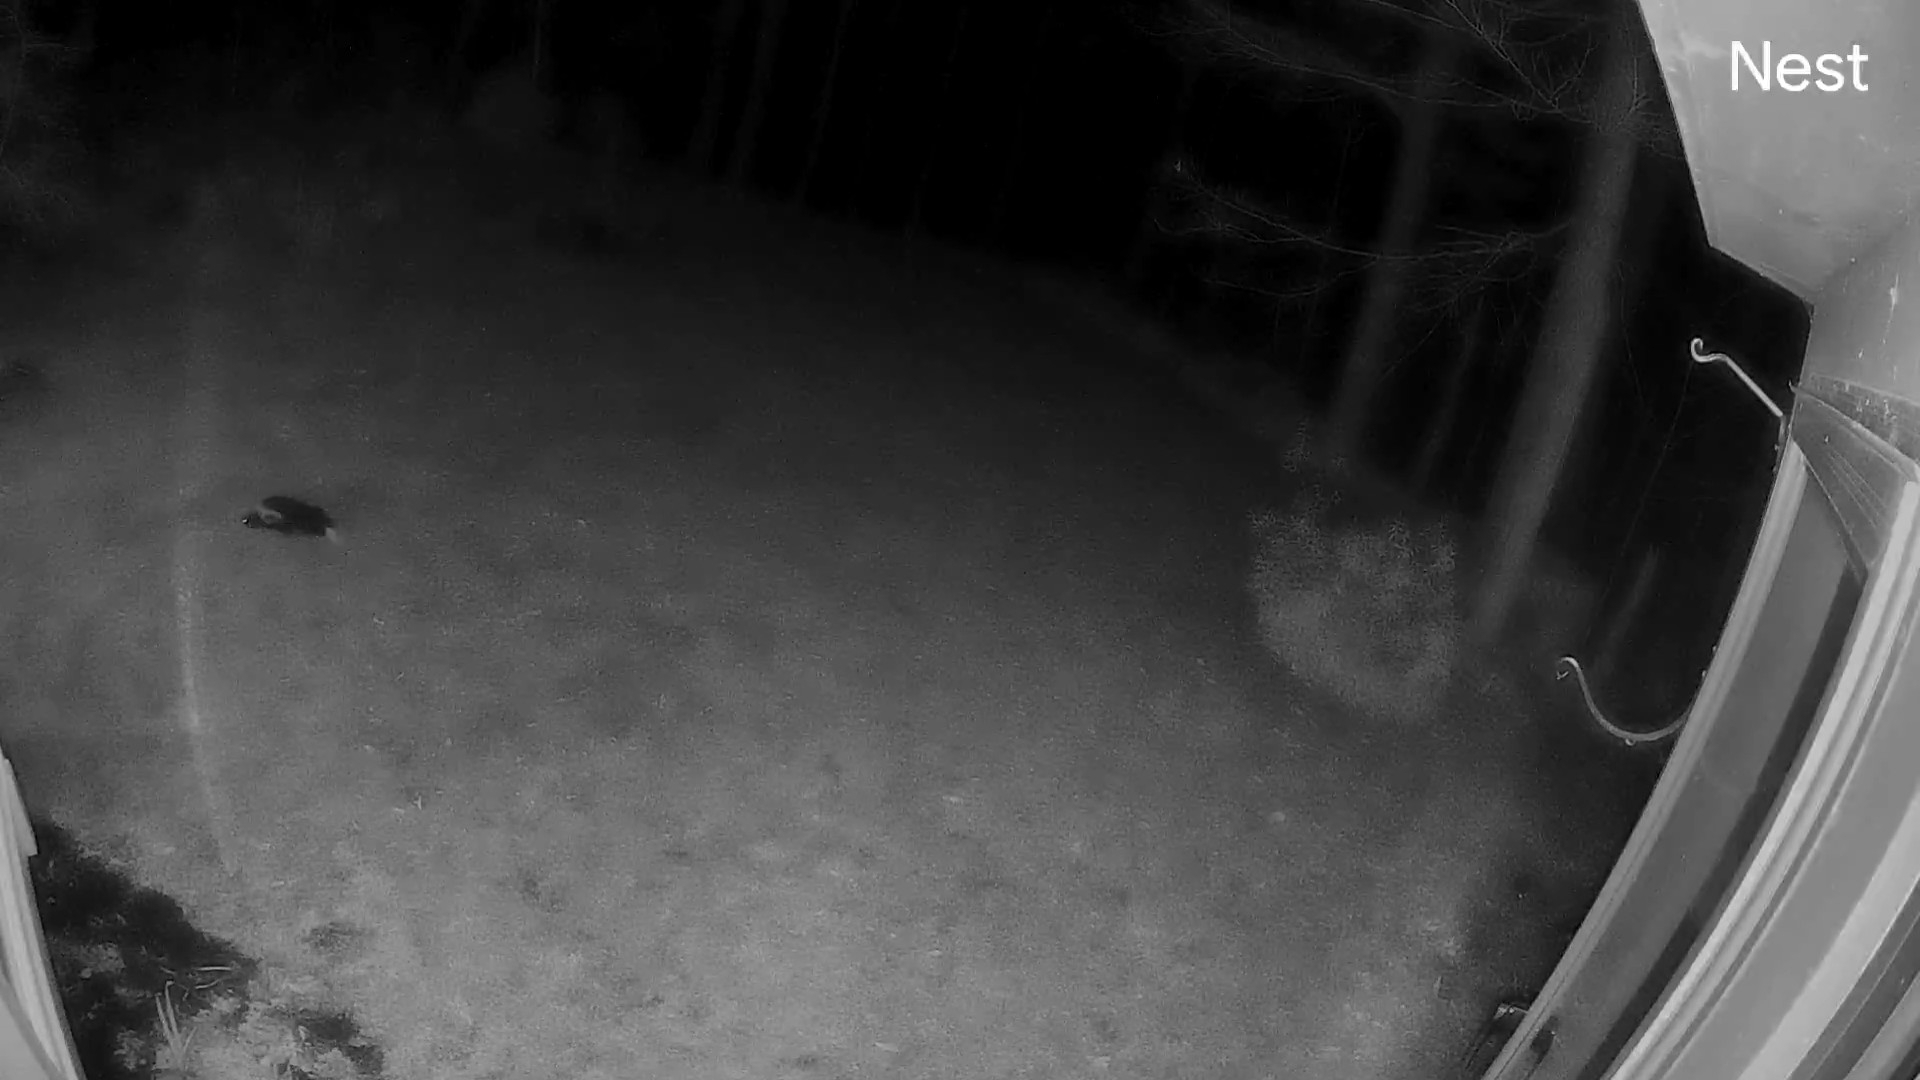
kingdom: Animalia
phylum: Chordata
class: Mammalia
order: Carnivora
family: Mephitidae
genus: Mephitis
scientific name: Mephitis mephitis
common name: Striped skunk
